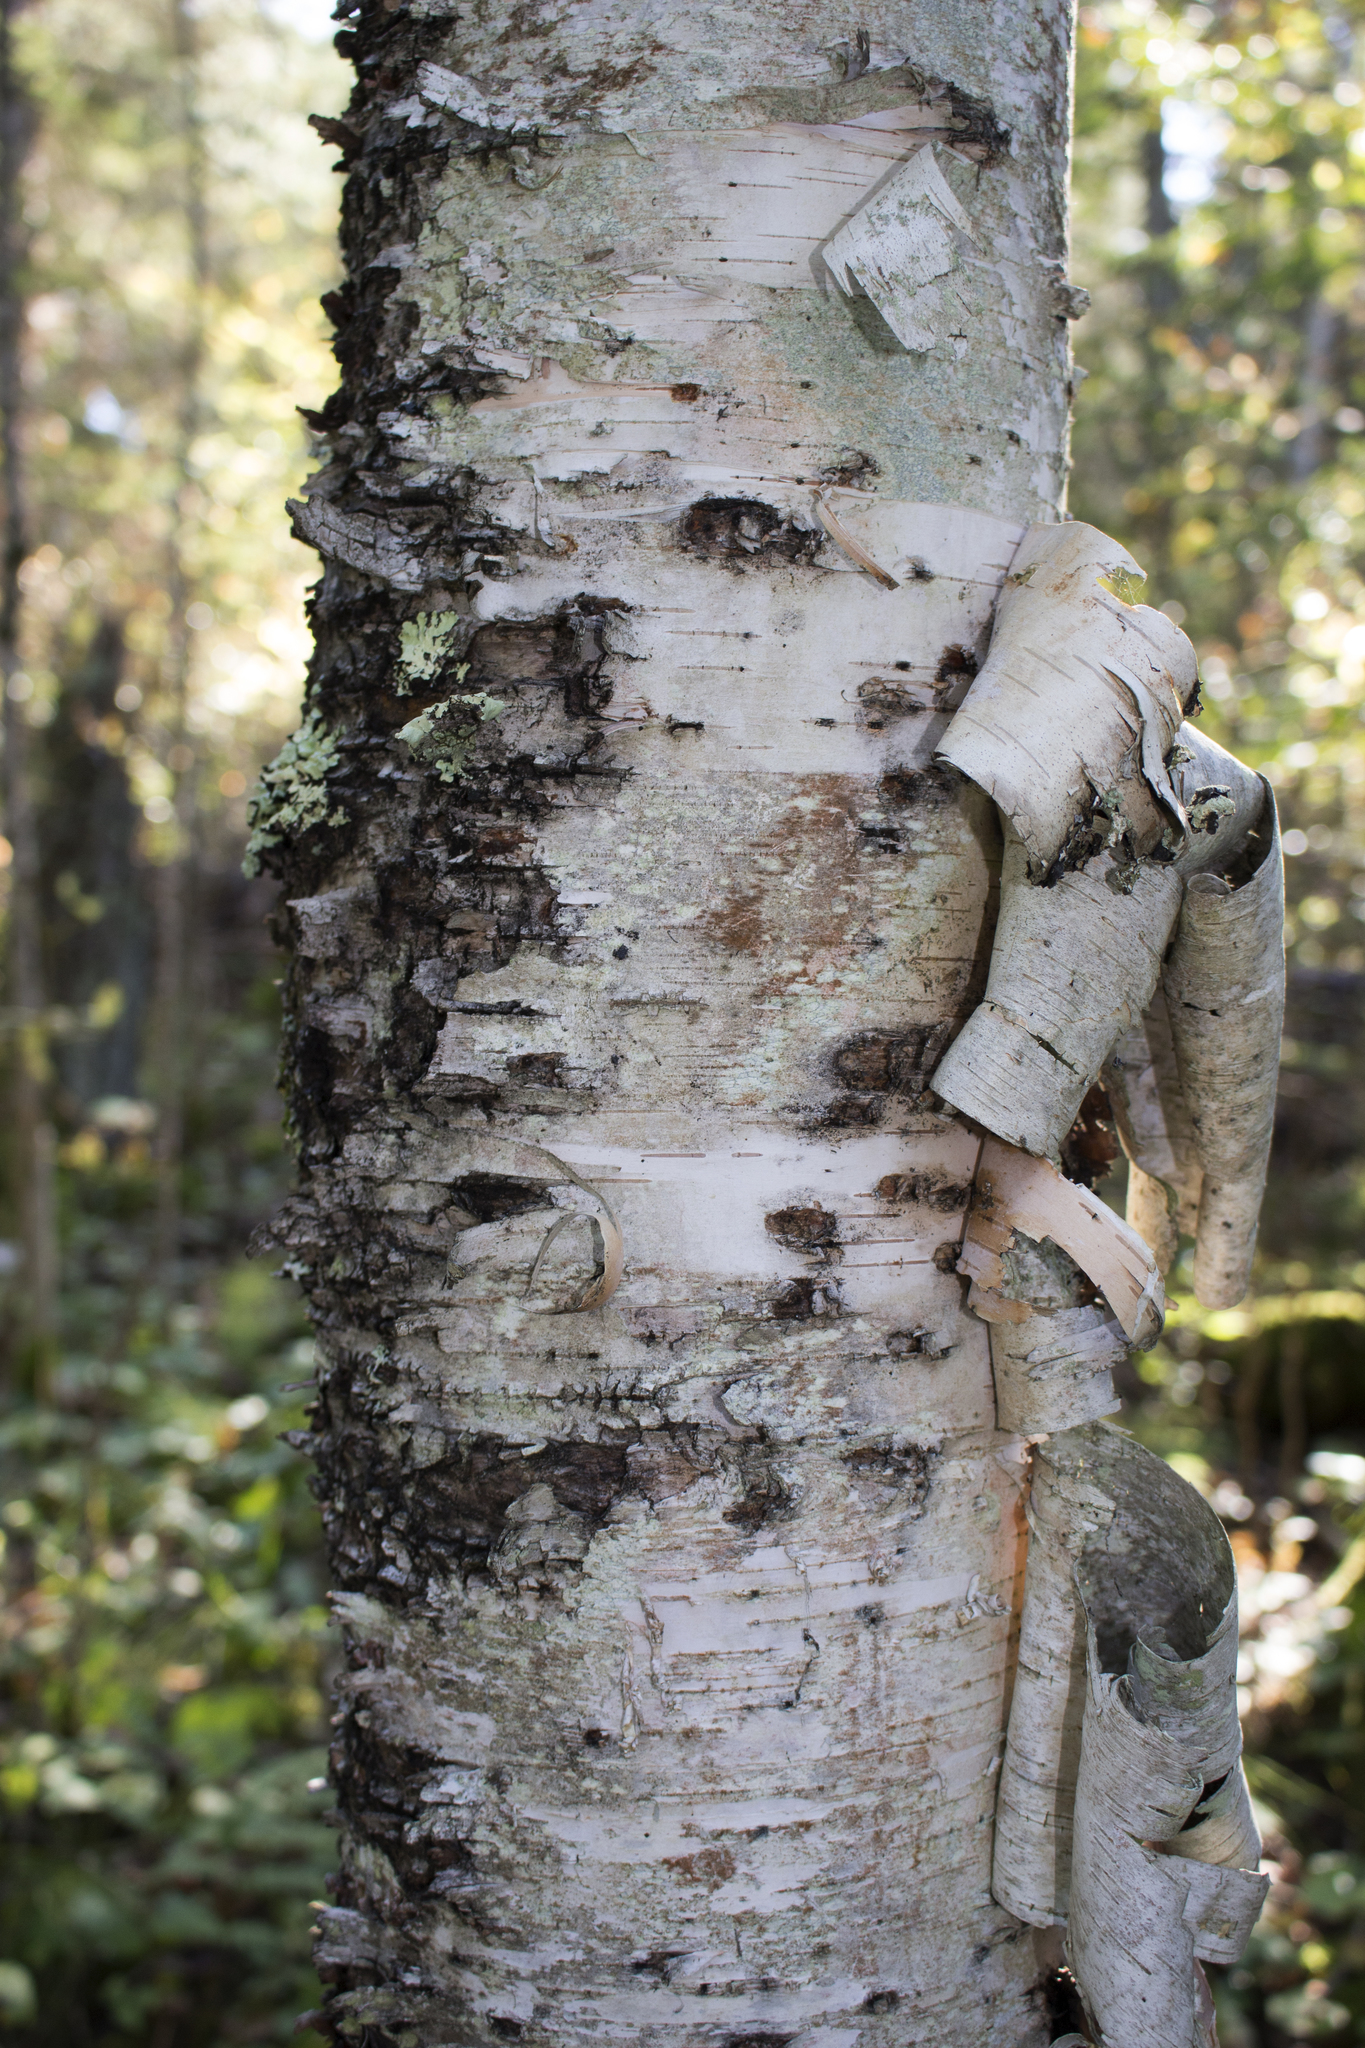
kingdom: Plantae
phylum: Tracheophyta
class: Magnoliopsida
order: Fagales
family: Betulaceae
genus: Betula
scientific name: Betula papyrifera
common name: Paper birch
